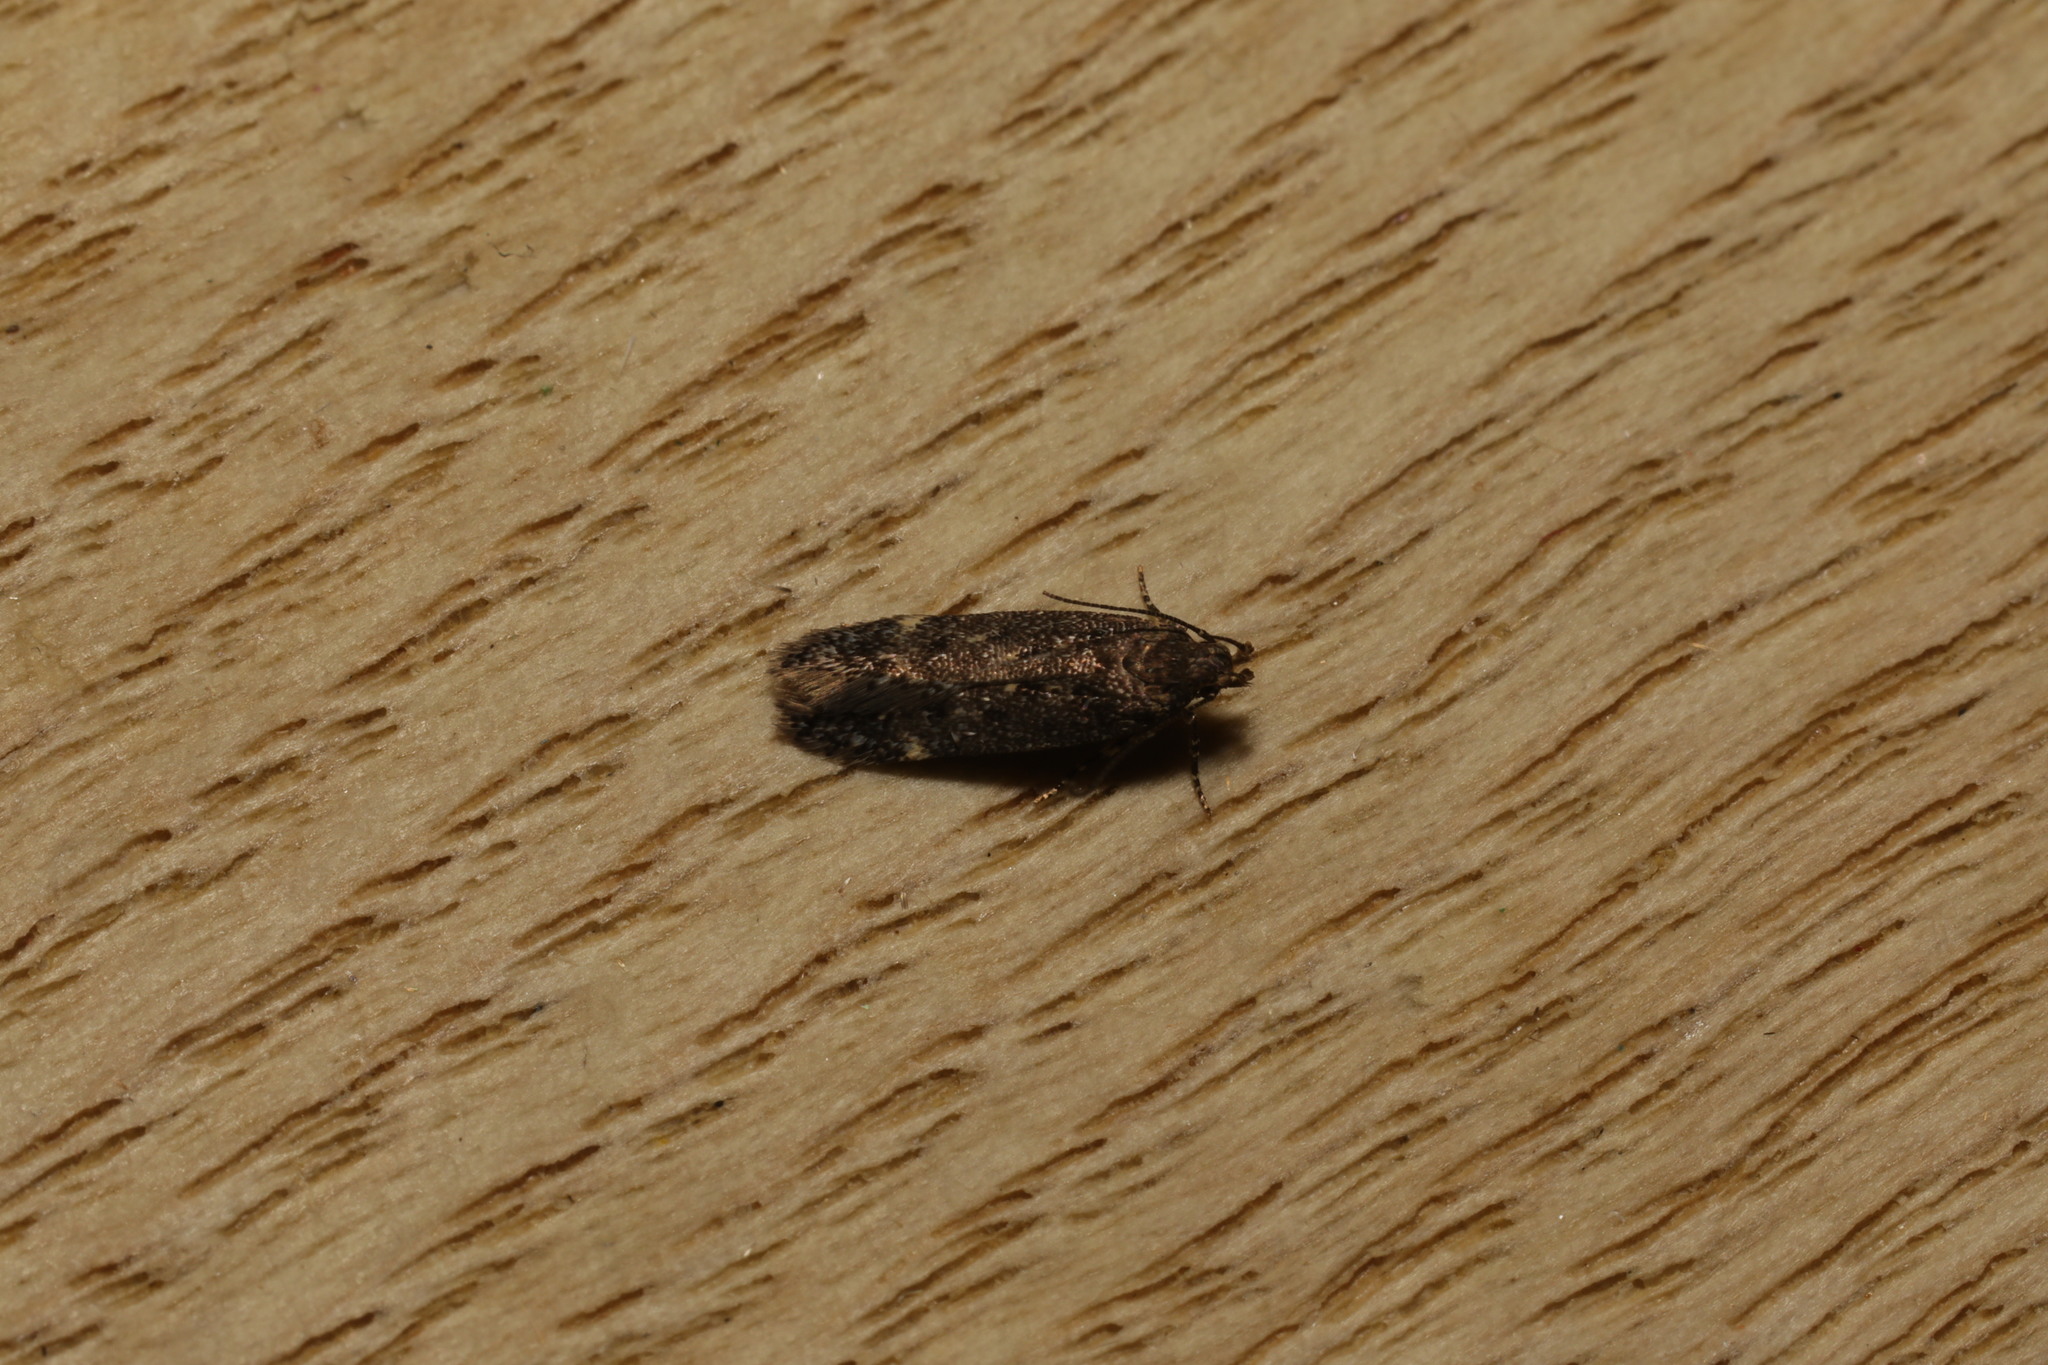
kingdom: Animalia
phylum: Arthropoda
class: Insecta
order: Lepidoptera
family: Gelechiidae
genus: Bryotropha
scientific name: Bryotropha affinis
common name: Dark groundling
